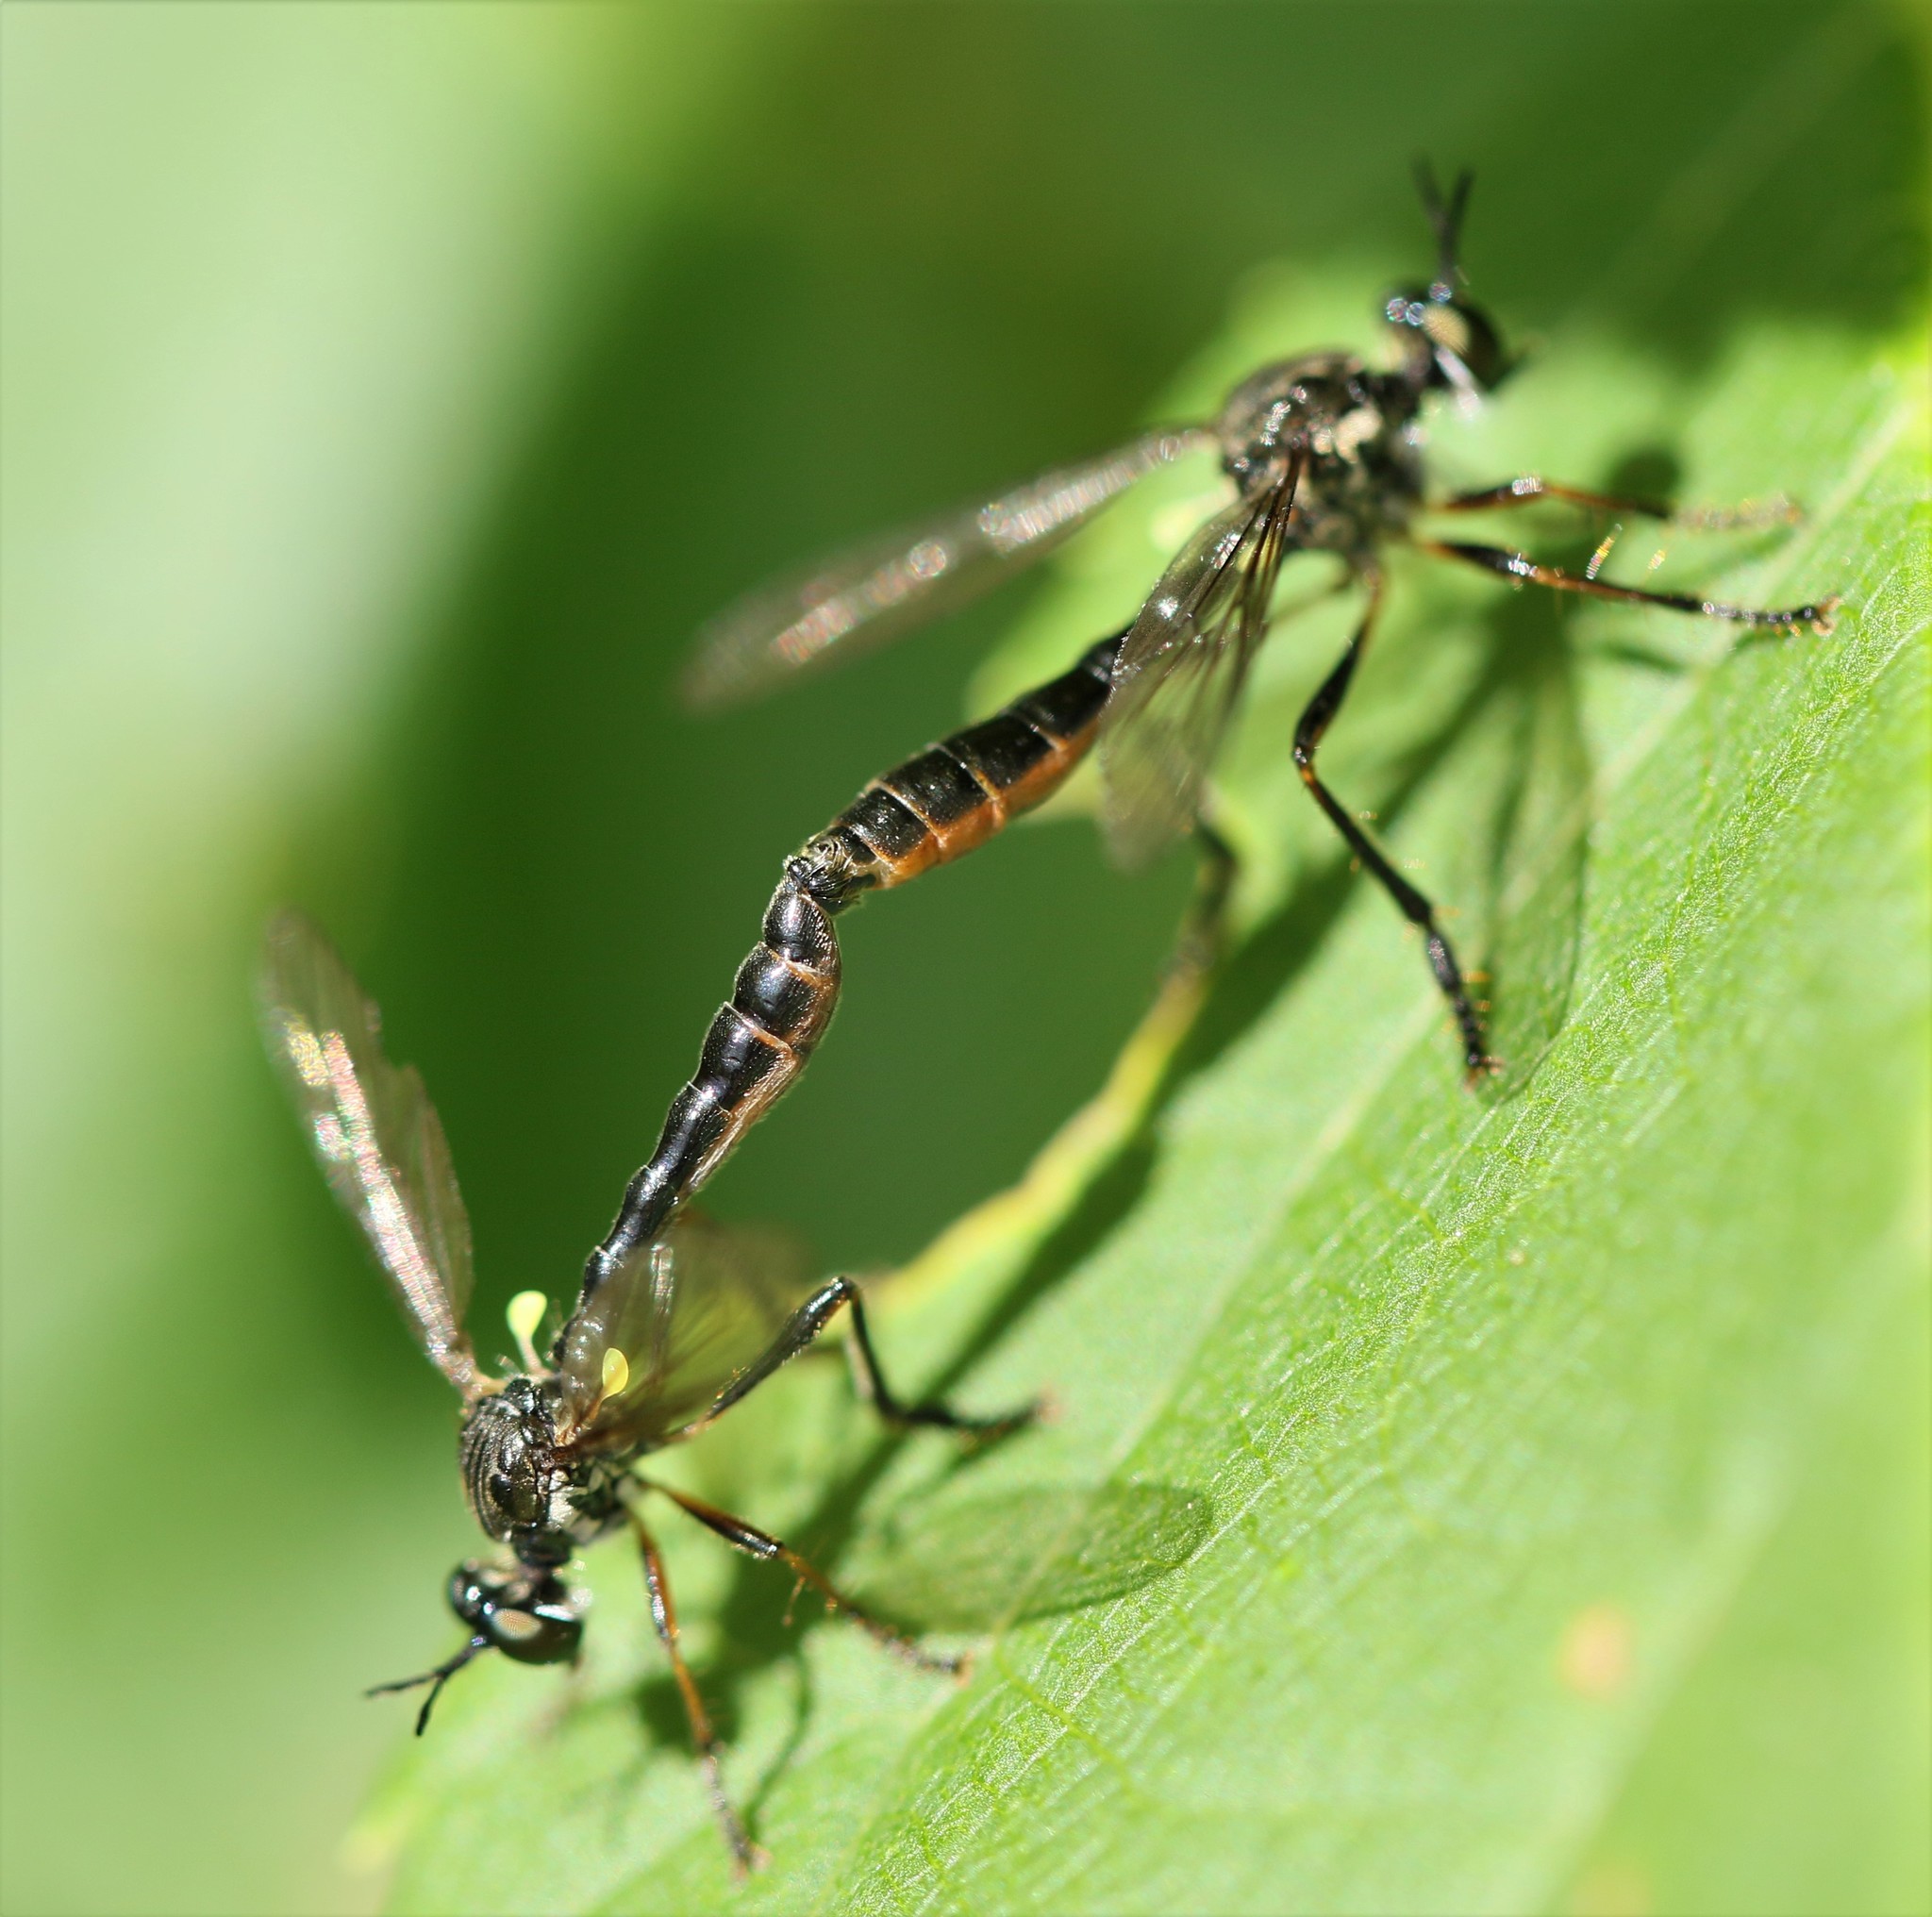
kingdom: Animalia
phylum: Arthropoda
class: Insecta
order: Diptera
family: Asilidae
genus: Dioctria
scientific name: Dioctria hyalipennis
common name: Stripe-legged robberfly
